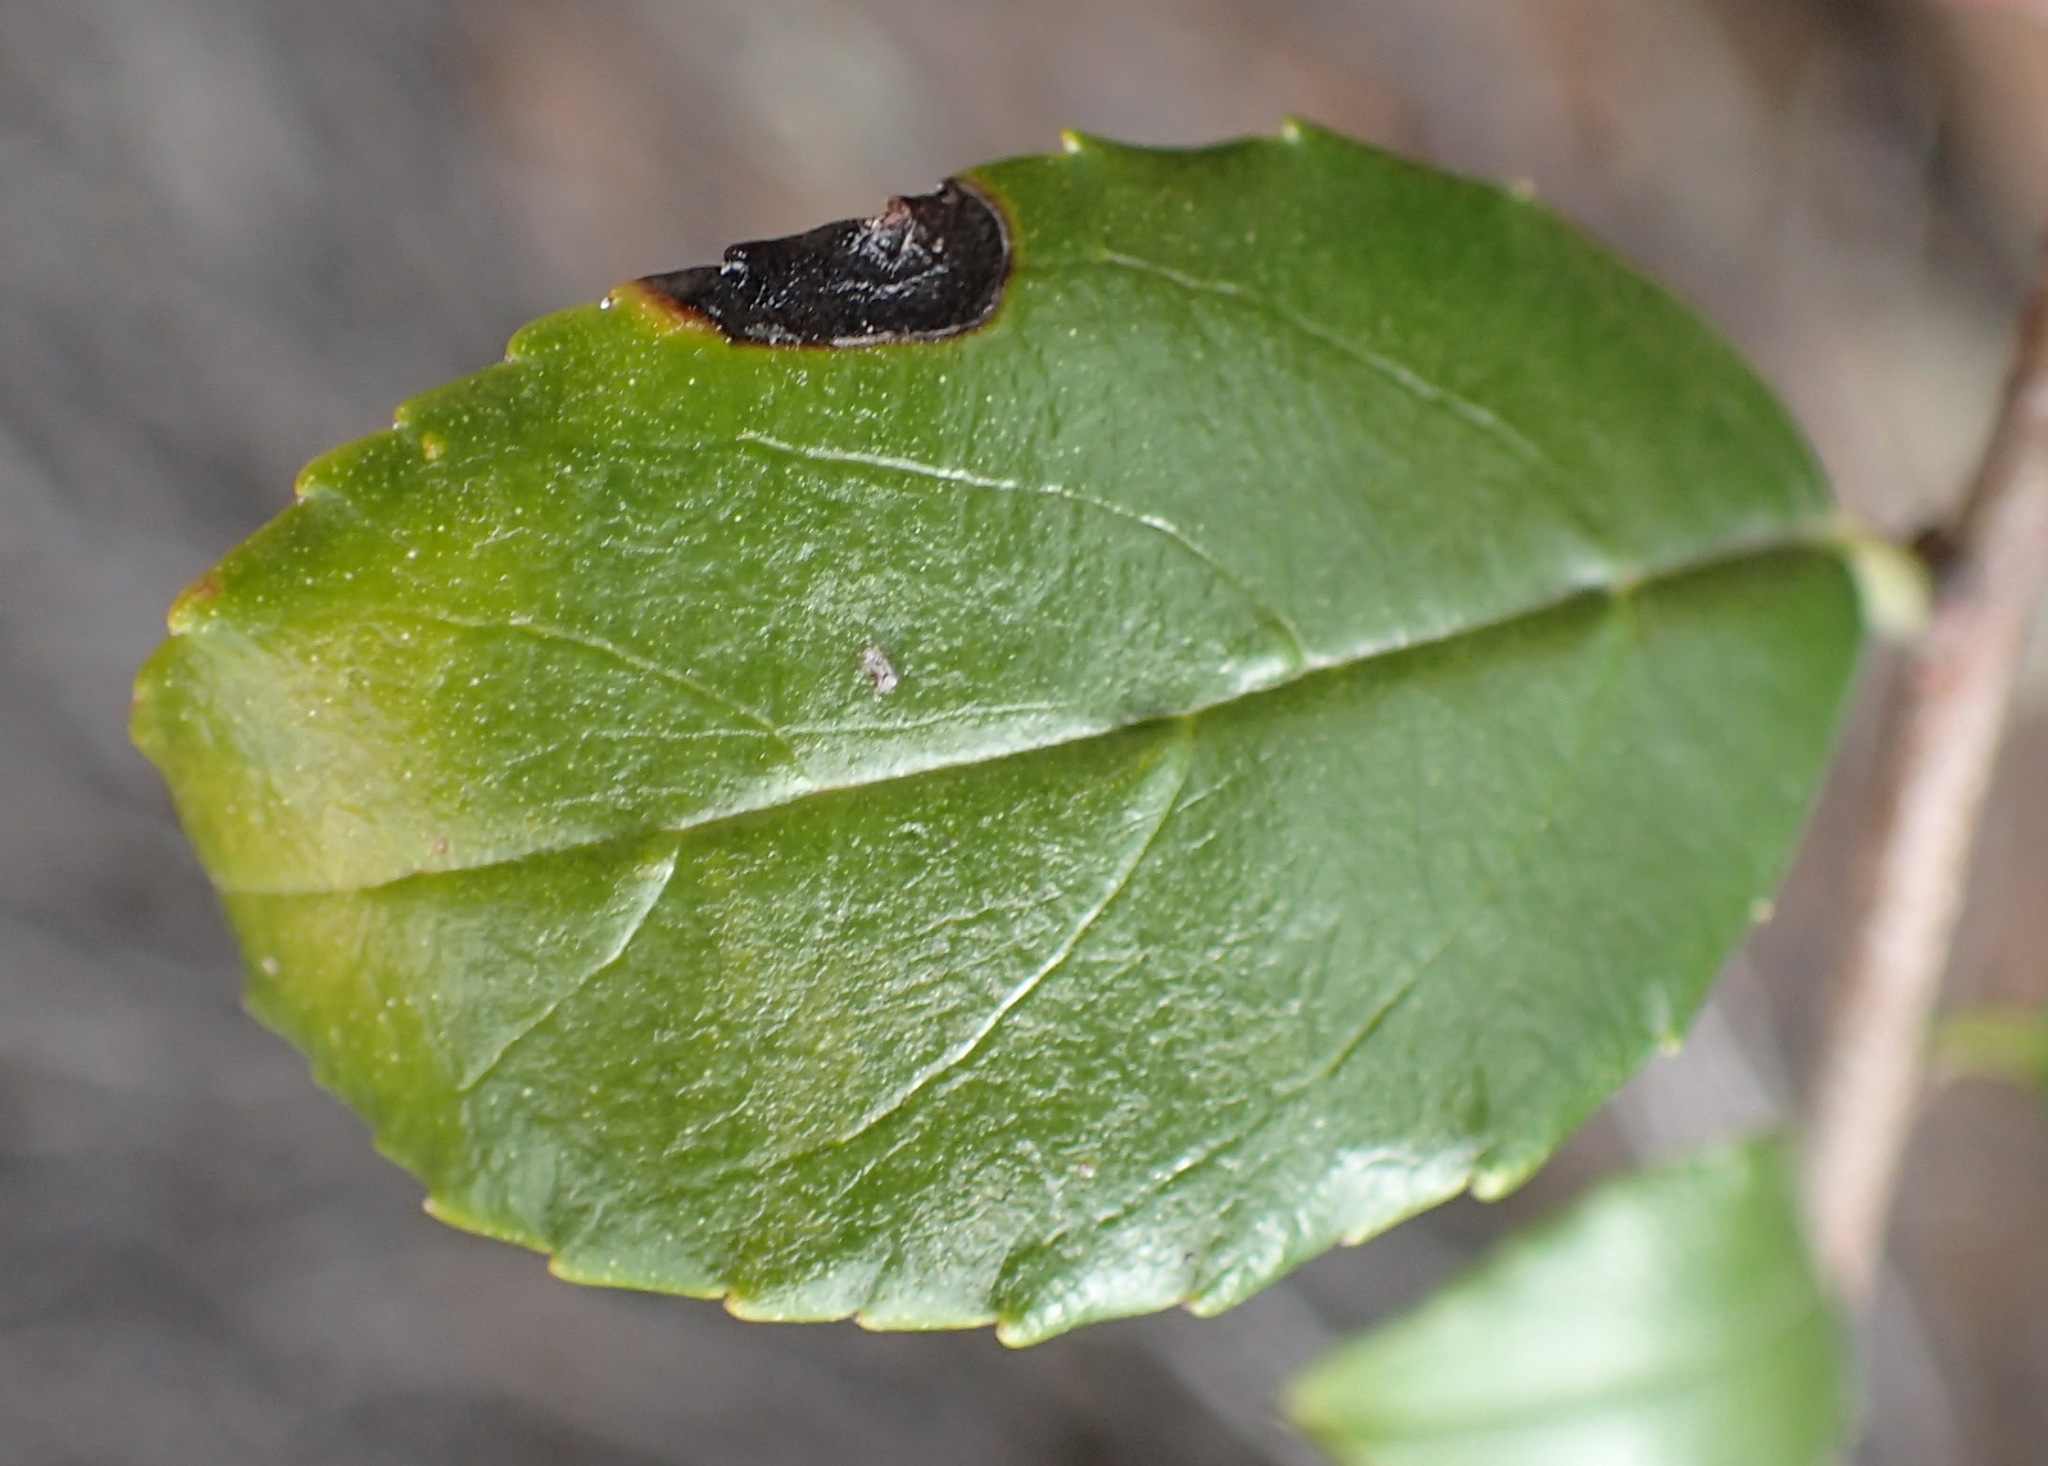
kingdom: Plantae
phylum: Tracheophyta
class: Magnoliopsida
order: Rosales
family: Rhamnaceae
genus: Rhamnus
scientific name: Rhamnus prinoides
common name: Dogwood
